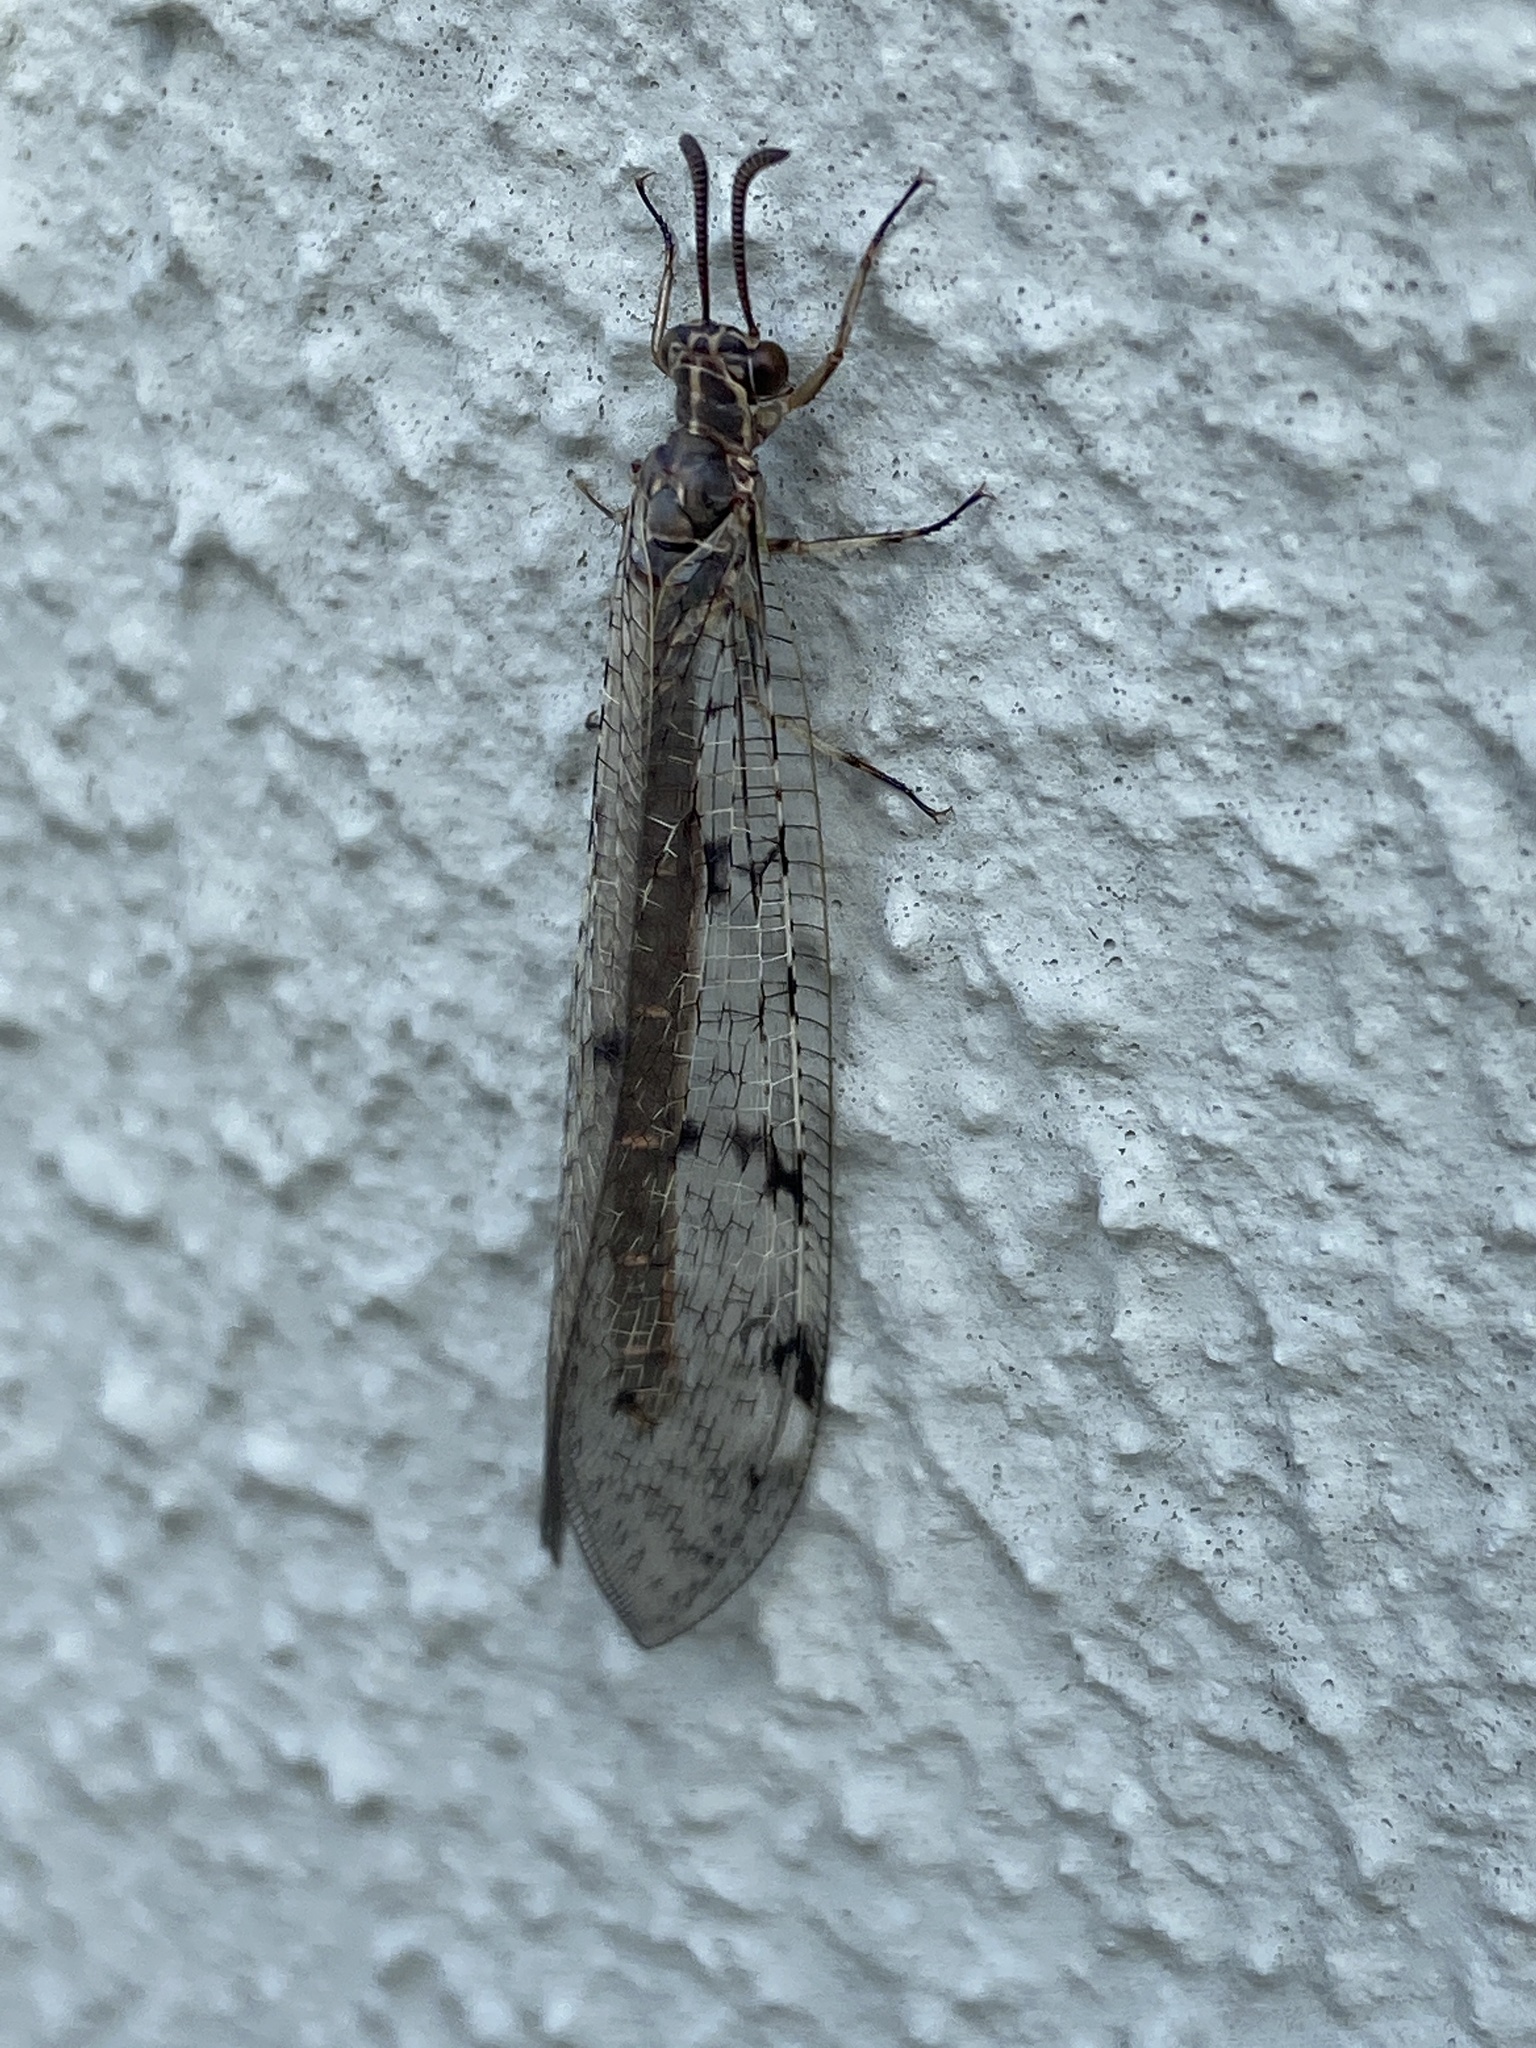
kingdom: Animalia
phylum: Arthropoda
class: Insecta
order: Neuroptera
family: Myrmeleontidae
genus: Euroleon
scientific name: Euroleon nostras
